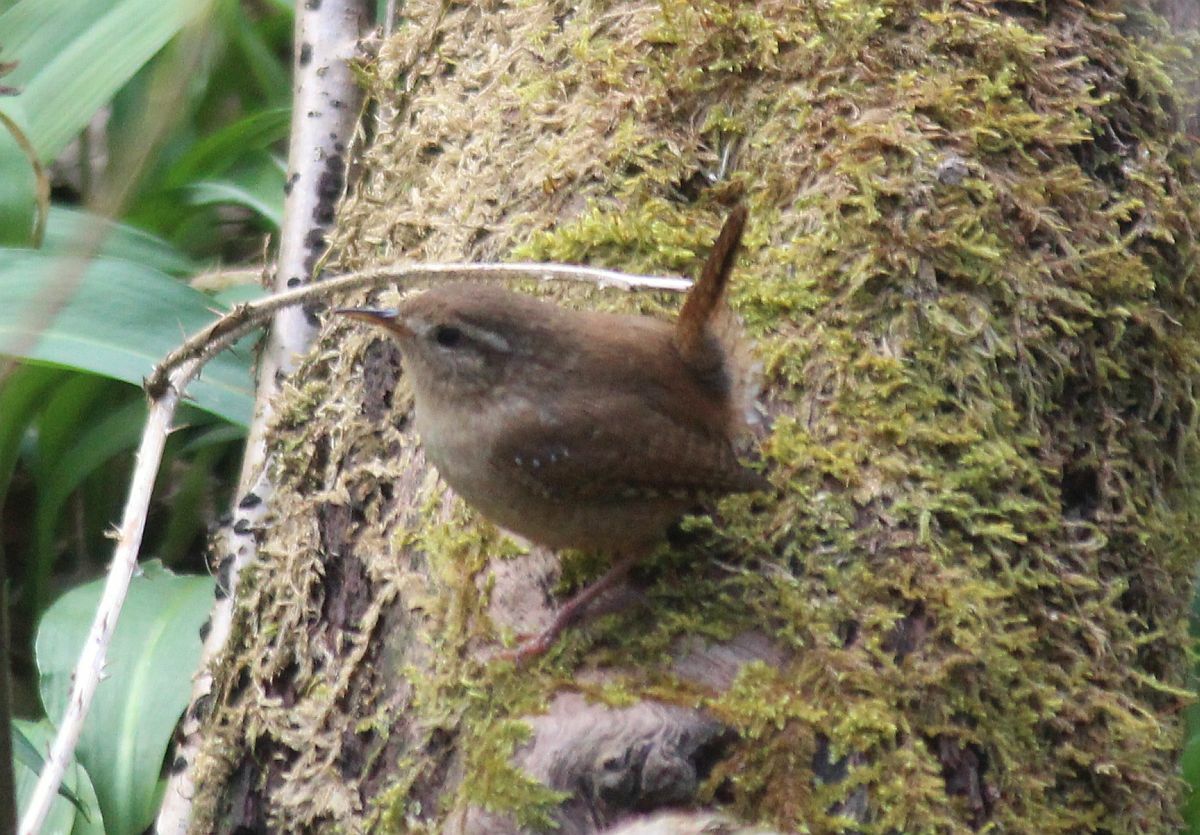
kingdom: Animalia
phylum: Chordata
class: Aves
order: Passeriformes
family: Troglodytidae
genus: Troglodytes
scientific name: Troglodytes troglodytes
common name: Eurasian wren
